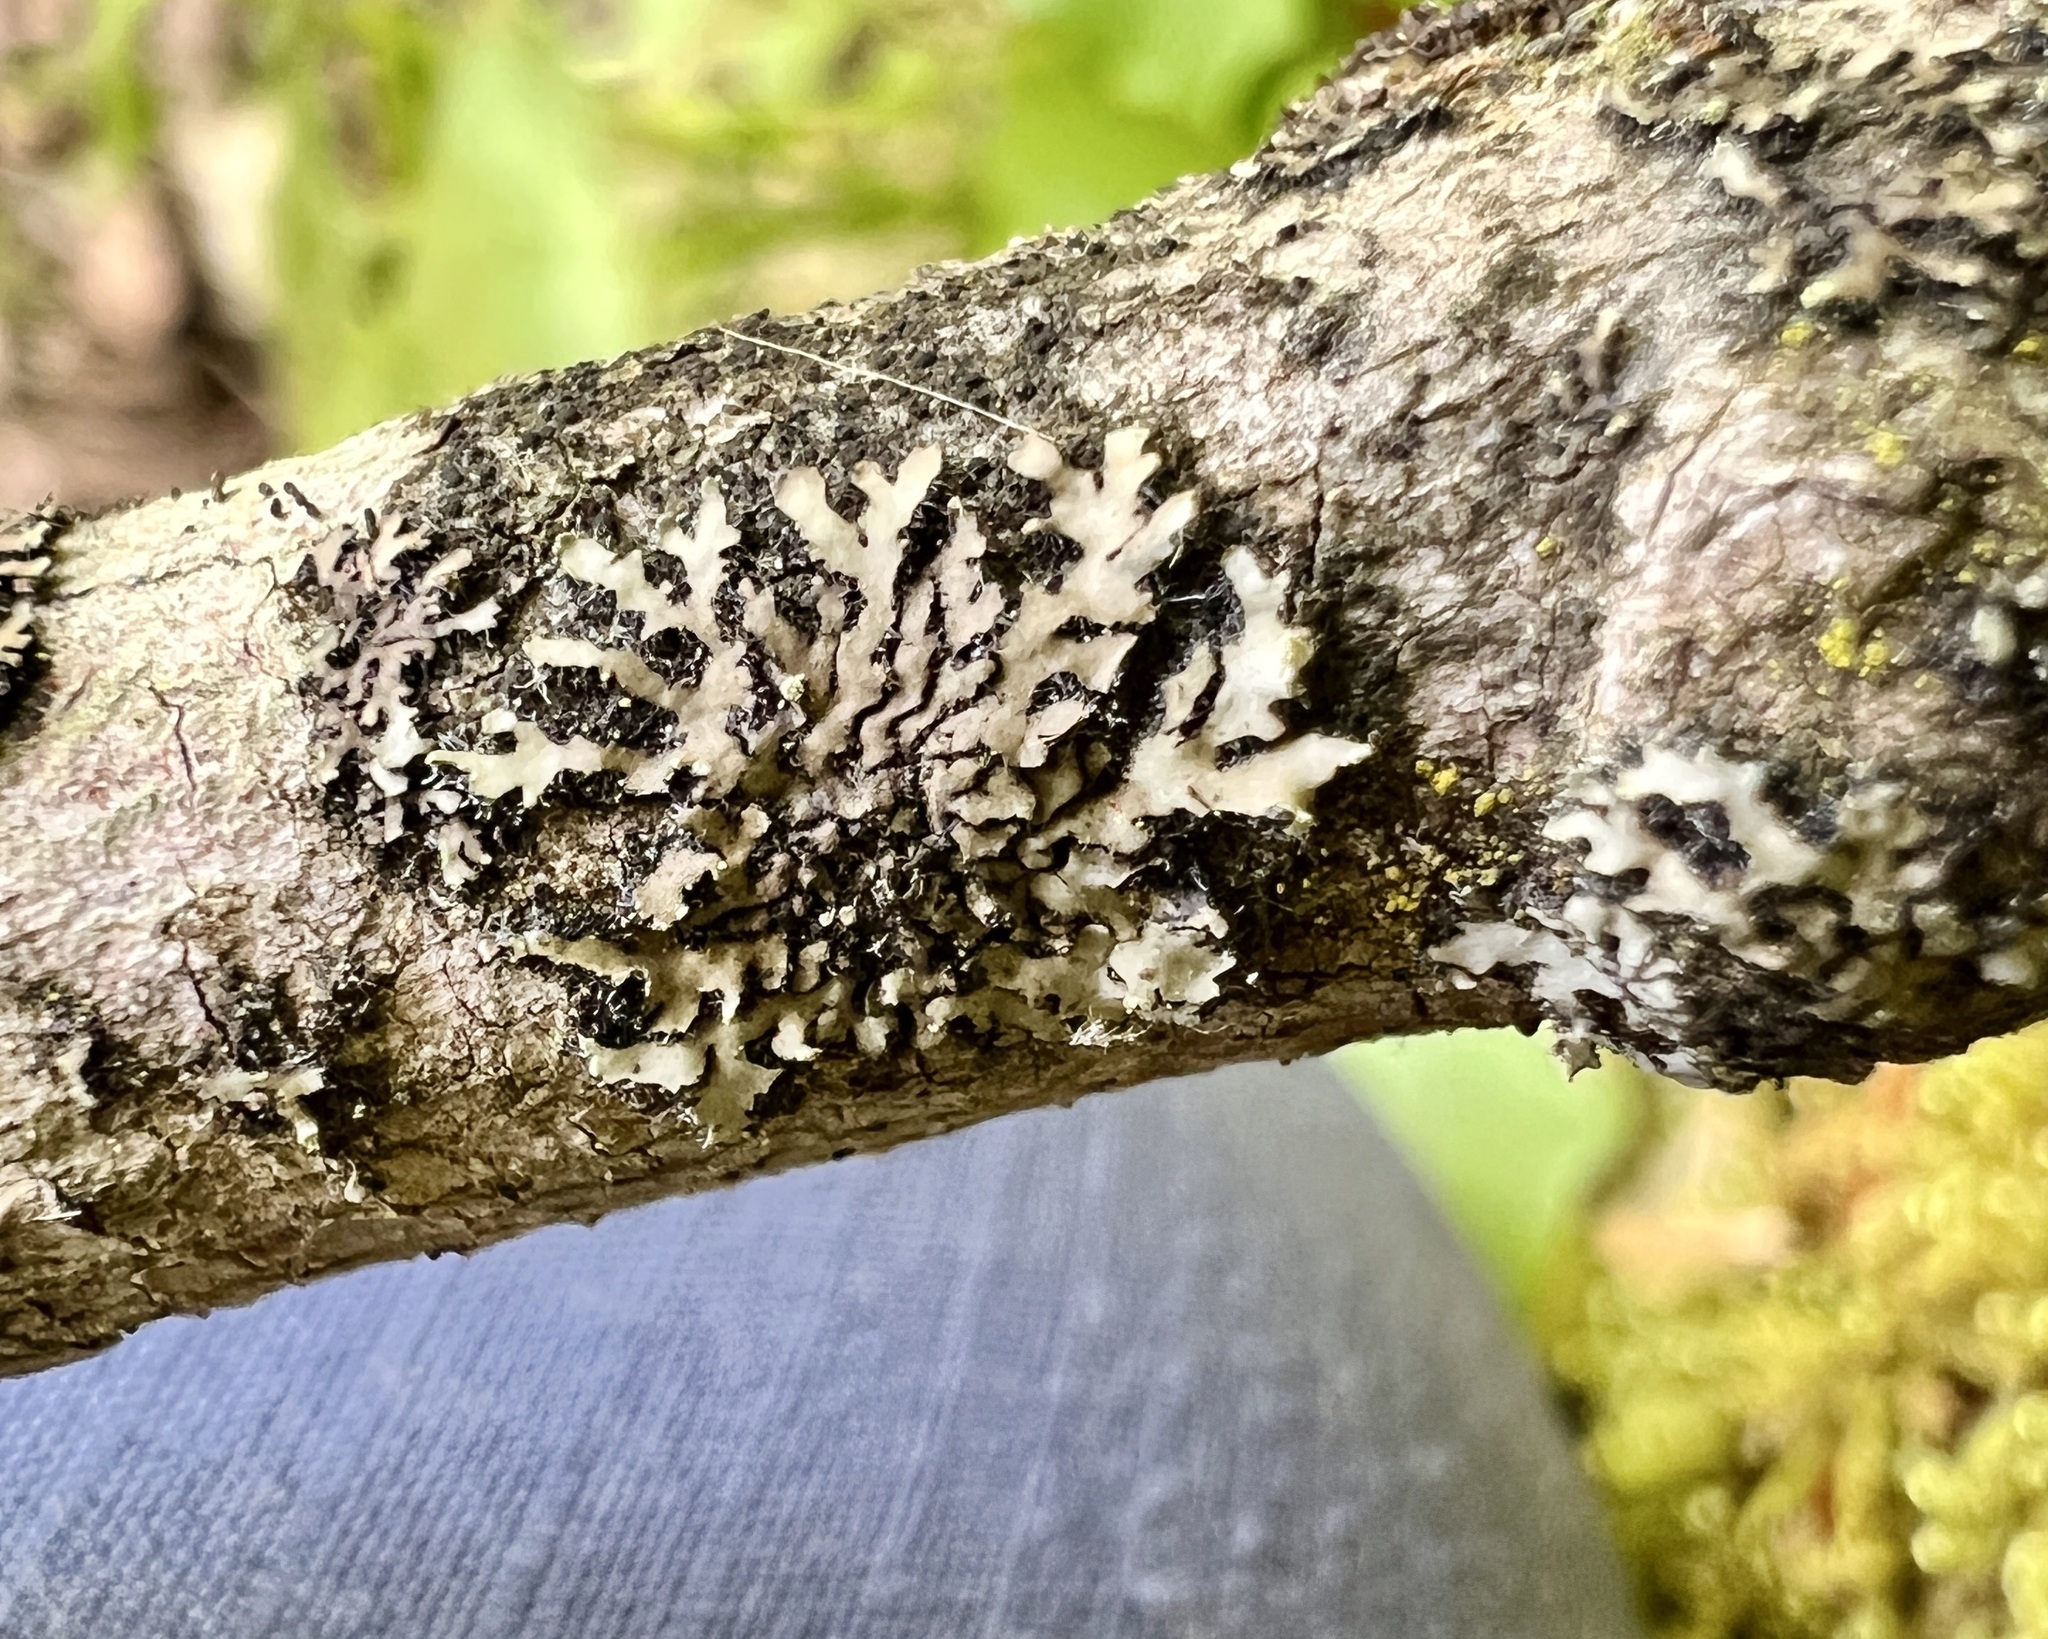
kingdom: Fungi
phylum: Ascomycota
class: Lecanoromycetes
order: Caliciales
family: Physciaceae
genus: Phaeophyscia
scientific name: Phaeophyscia rubropulchra
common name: Orange-cored shadow lichen
